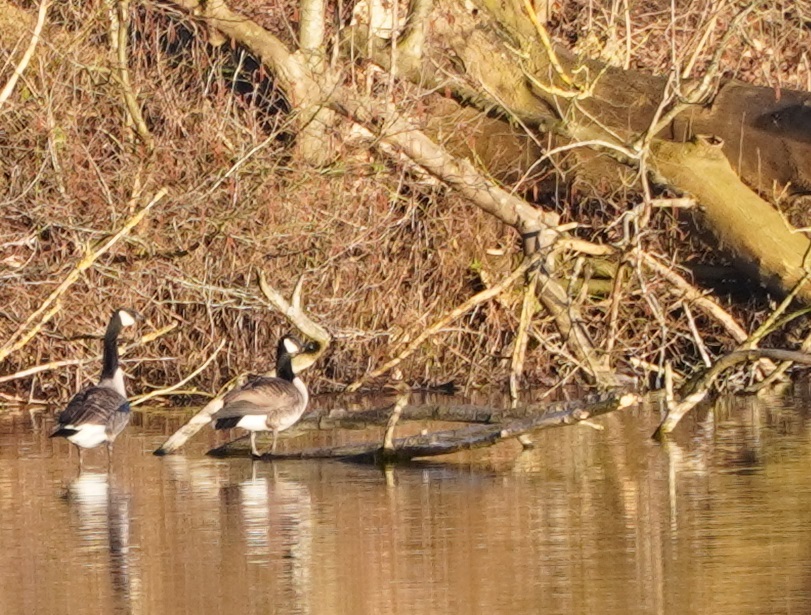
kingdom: Animalia
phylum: Chordata
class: Aves
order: Anseriformes
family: Anatidae
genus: Branta
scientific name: Branta canadensis
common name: Canada goose
